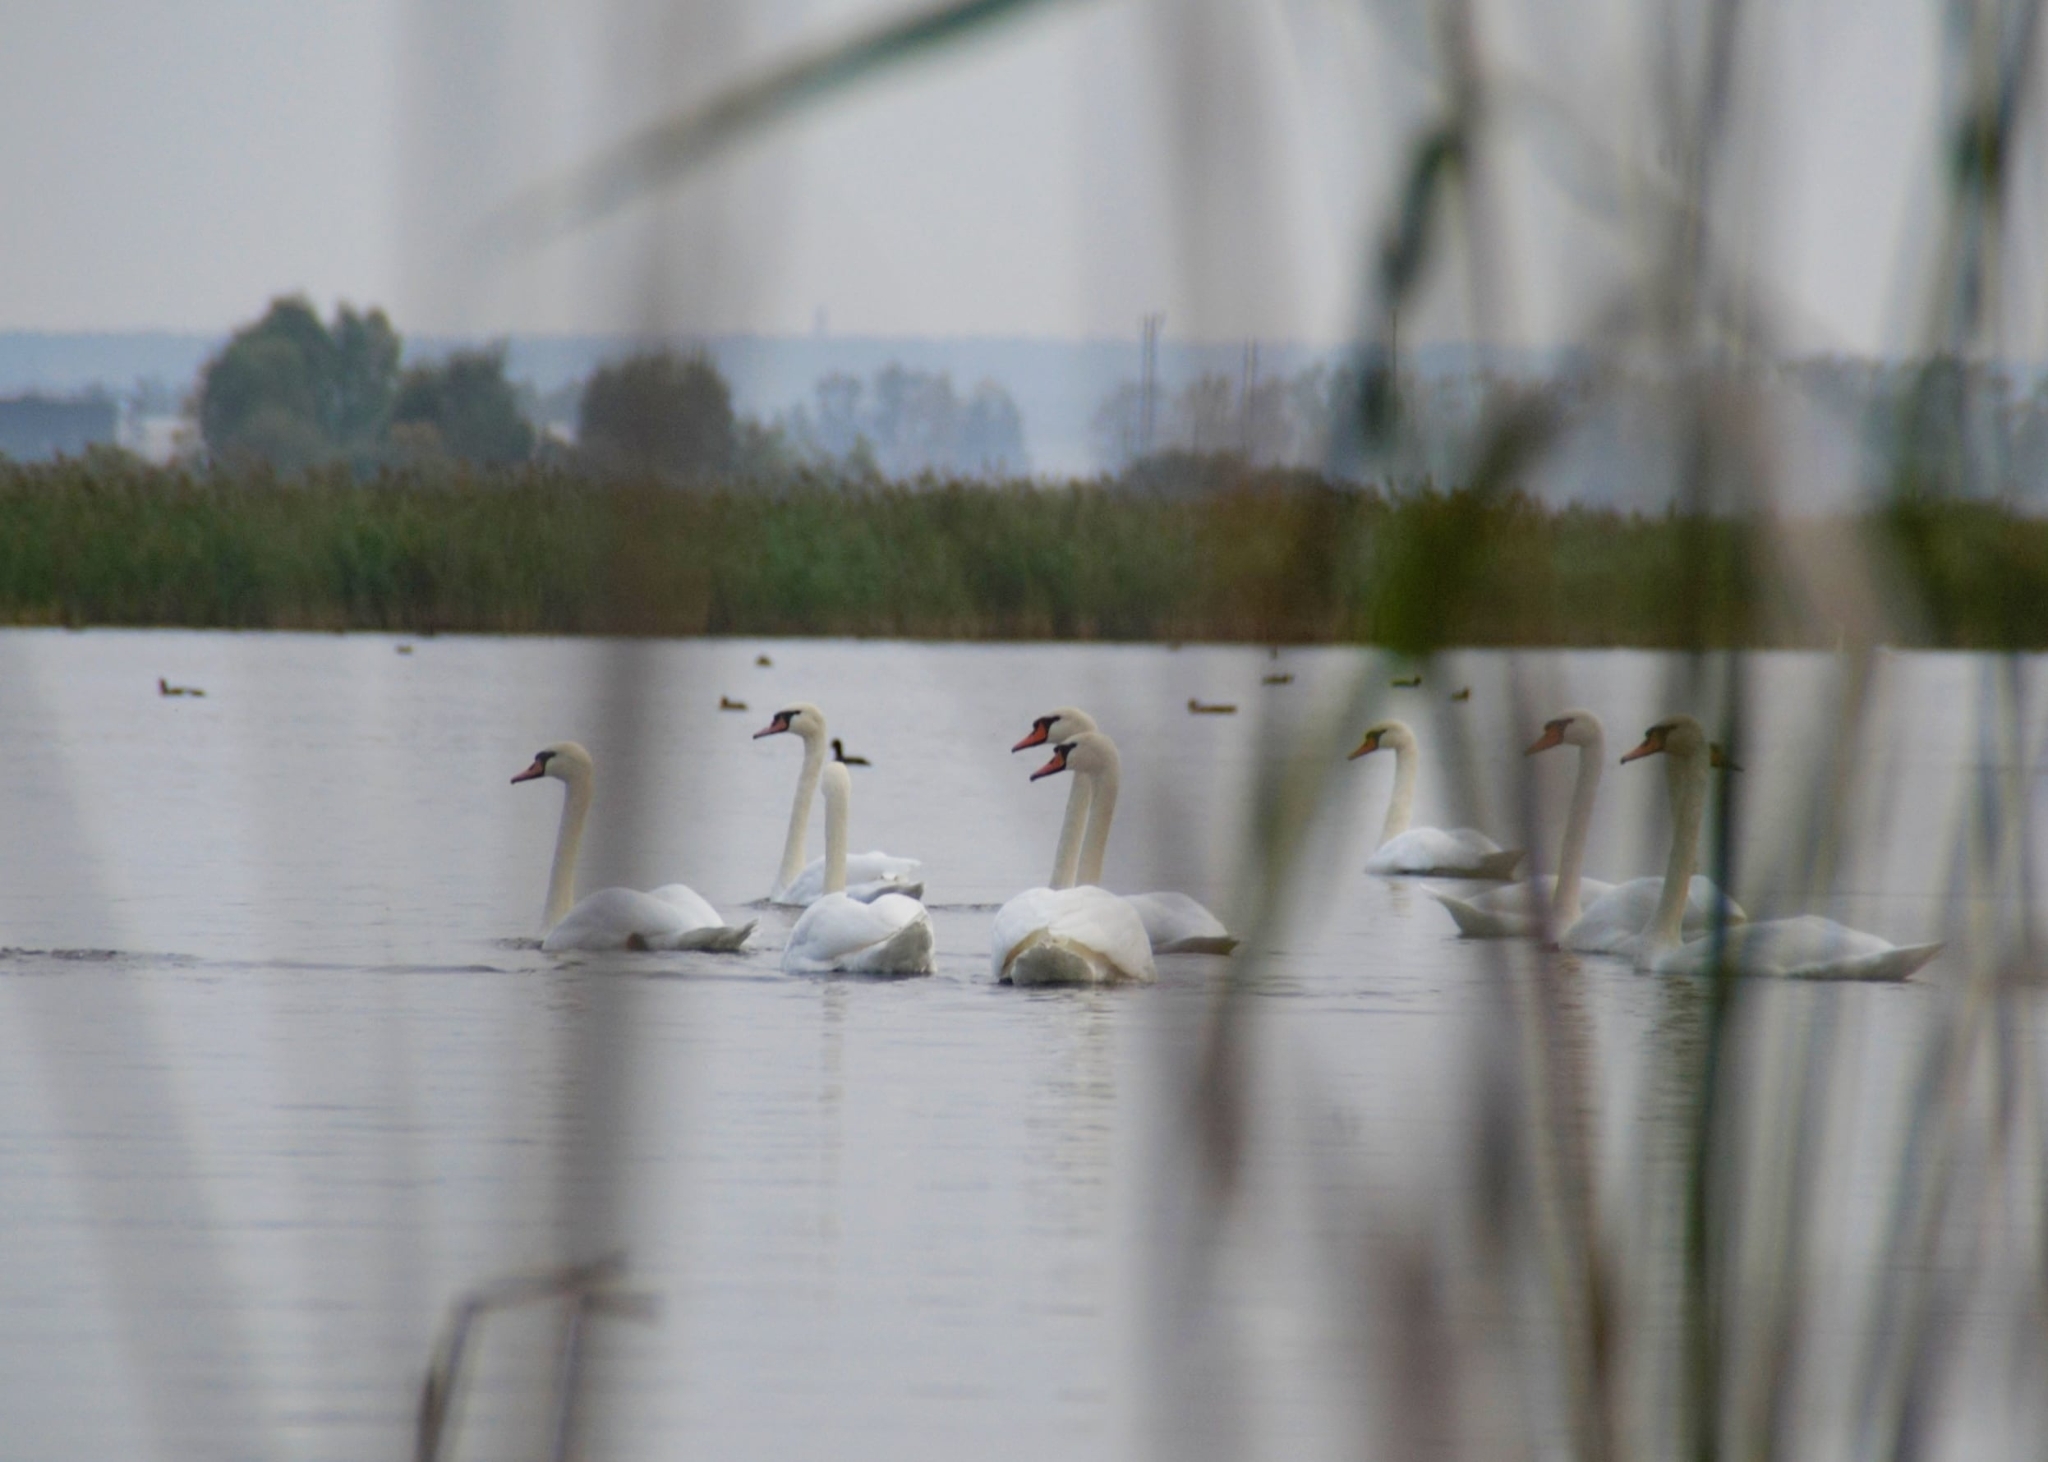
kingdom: Animalia
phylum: Chordata
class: Aves
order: Anseriformes
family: Anatidae
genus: Cygnus
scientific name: Cygnus olor
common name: Mute swan
